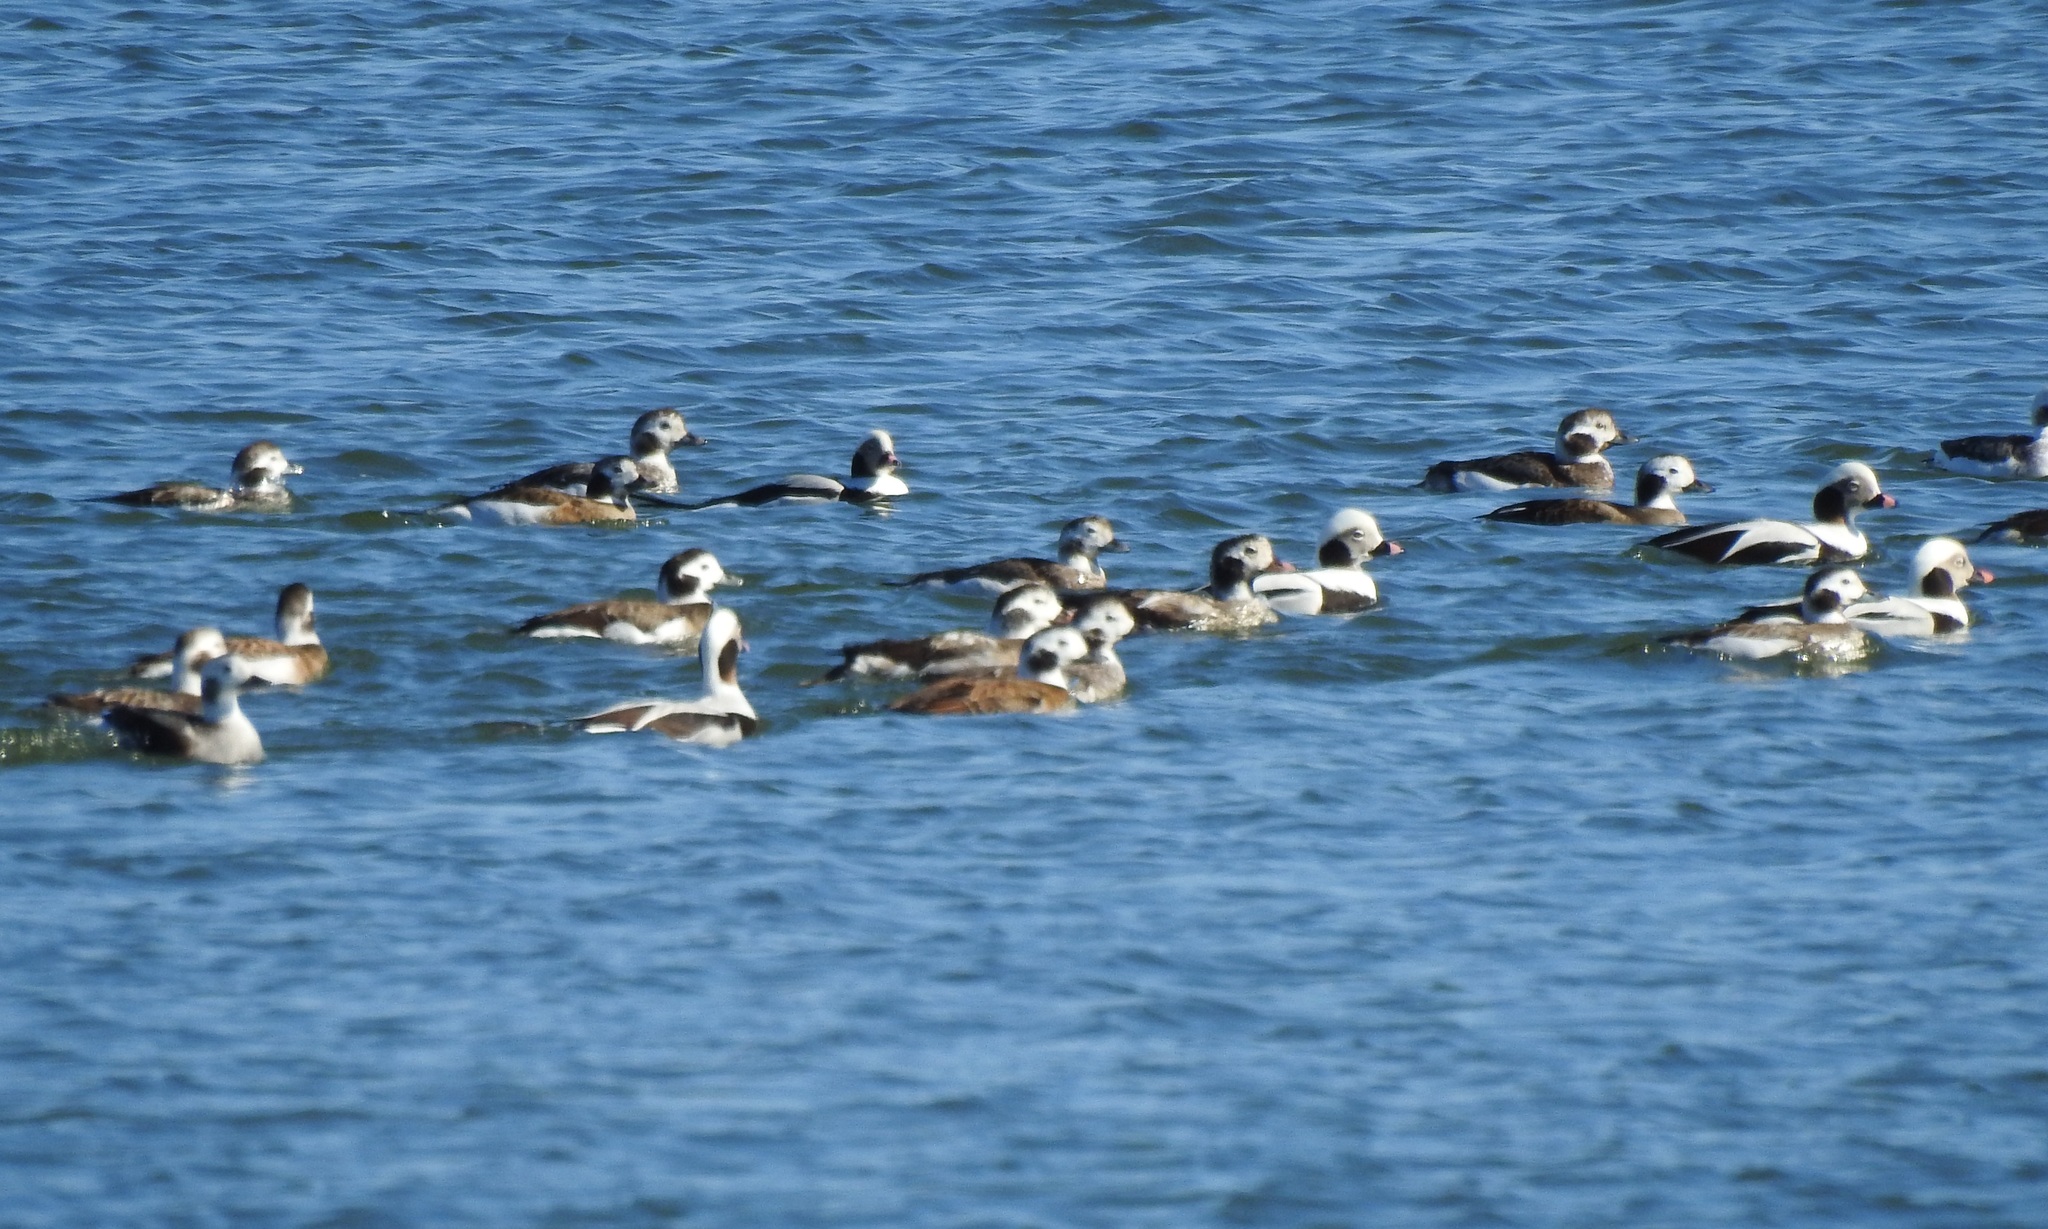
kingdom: Animalia
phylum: Chordata
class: Aves
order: Anseriformes
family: Anatidae
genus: Clangula
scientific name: Clangula hyemalis
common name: Long-tailed duck
